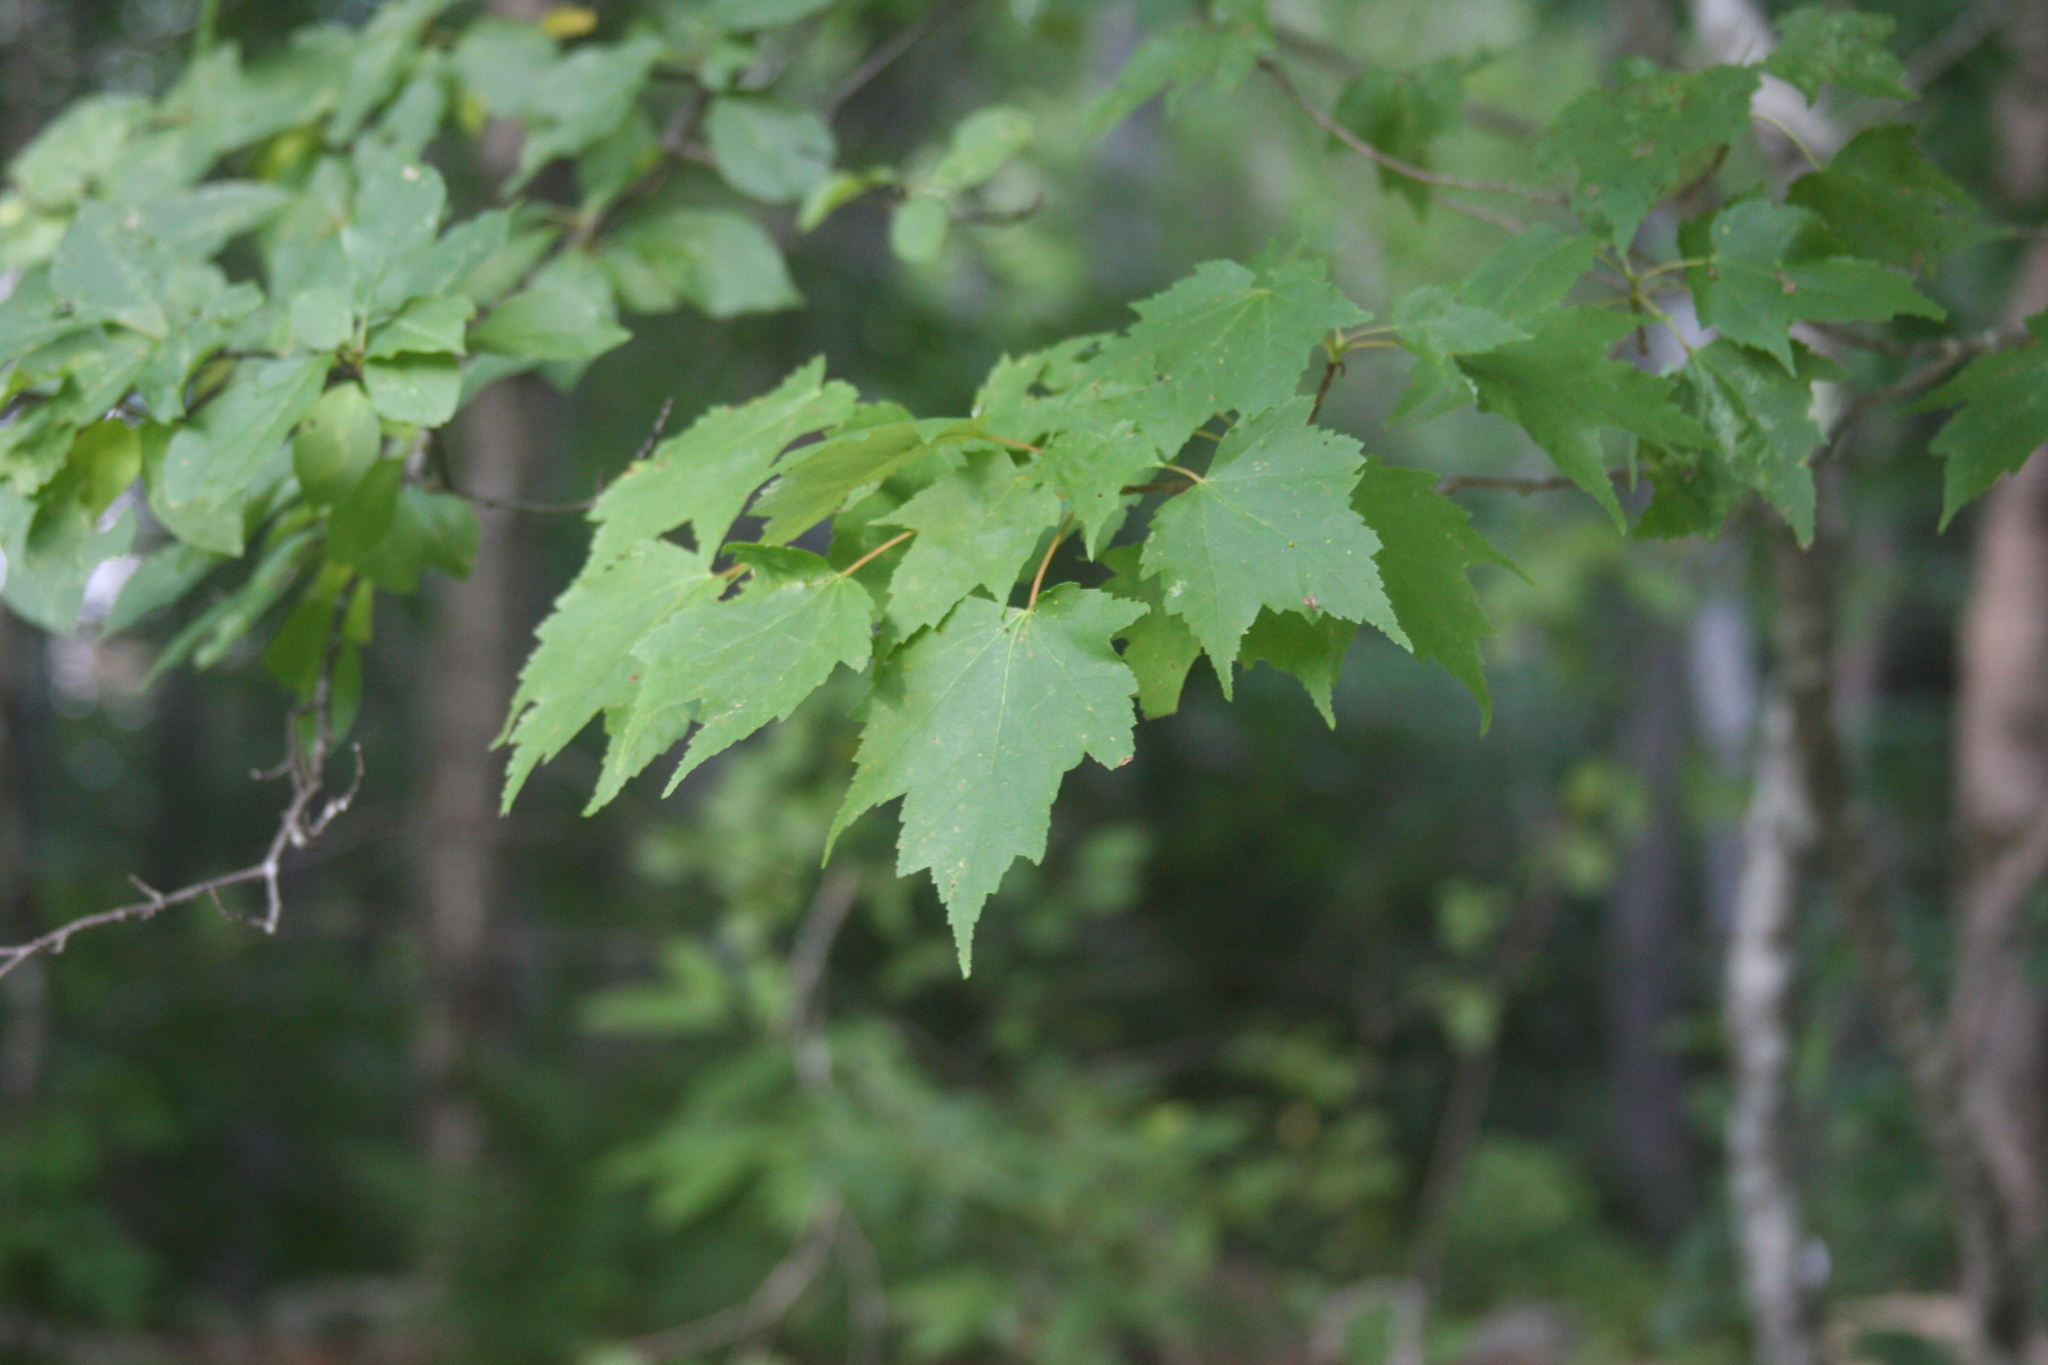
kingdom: Plantae
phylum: Tracheophyta
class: Magnoliopsida
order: Sapindales
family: Sapindaceae
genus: Acer
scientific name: Acer rubrum
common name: Red maple
